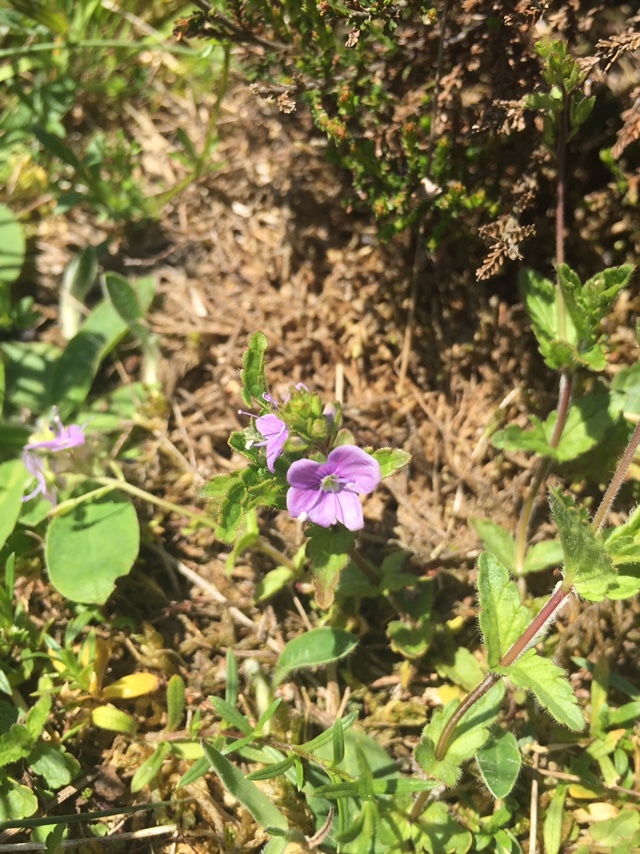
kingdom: Plantae
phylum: Tracheophyta
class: Magnoliopsida
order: Lamiales
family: Plantaginaceae
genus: Veronica
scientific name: Veronica chamaedrys
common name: Germander speedwell
